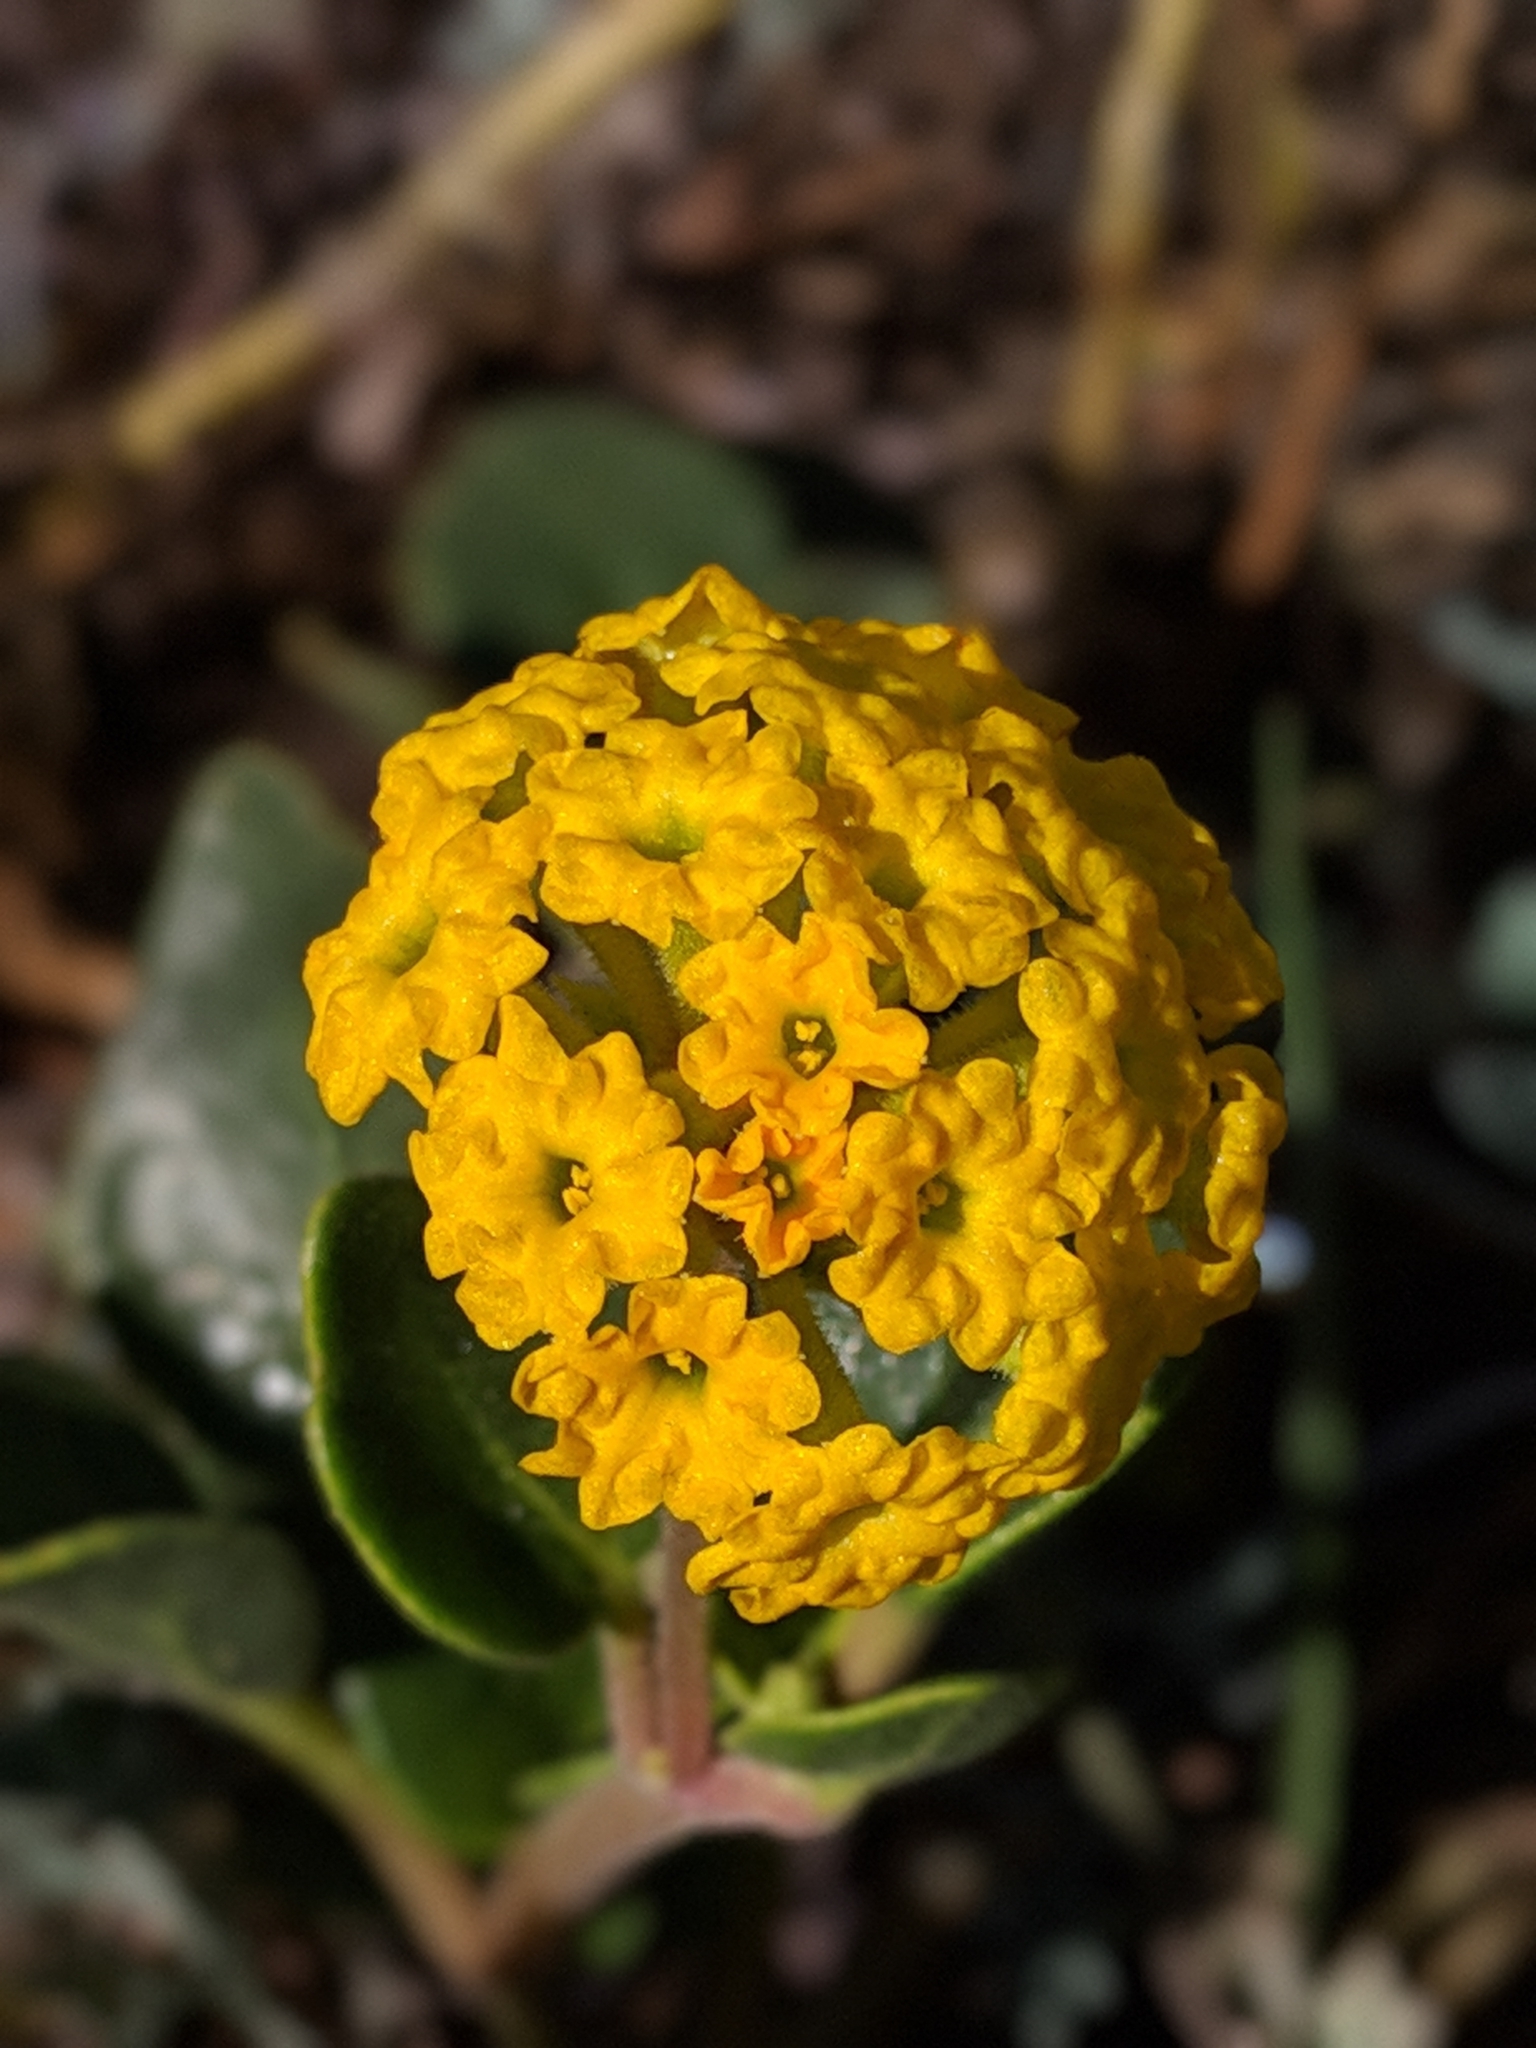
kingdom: Plantae
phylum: Tracheophyta
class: Magnoliopsida
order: Caryophyllales
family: Nyctaginaceae
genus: Abronia
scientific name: Abronia latifolia
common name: Yellow sand-verbena
